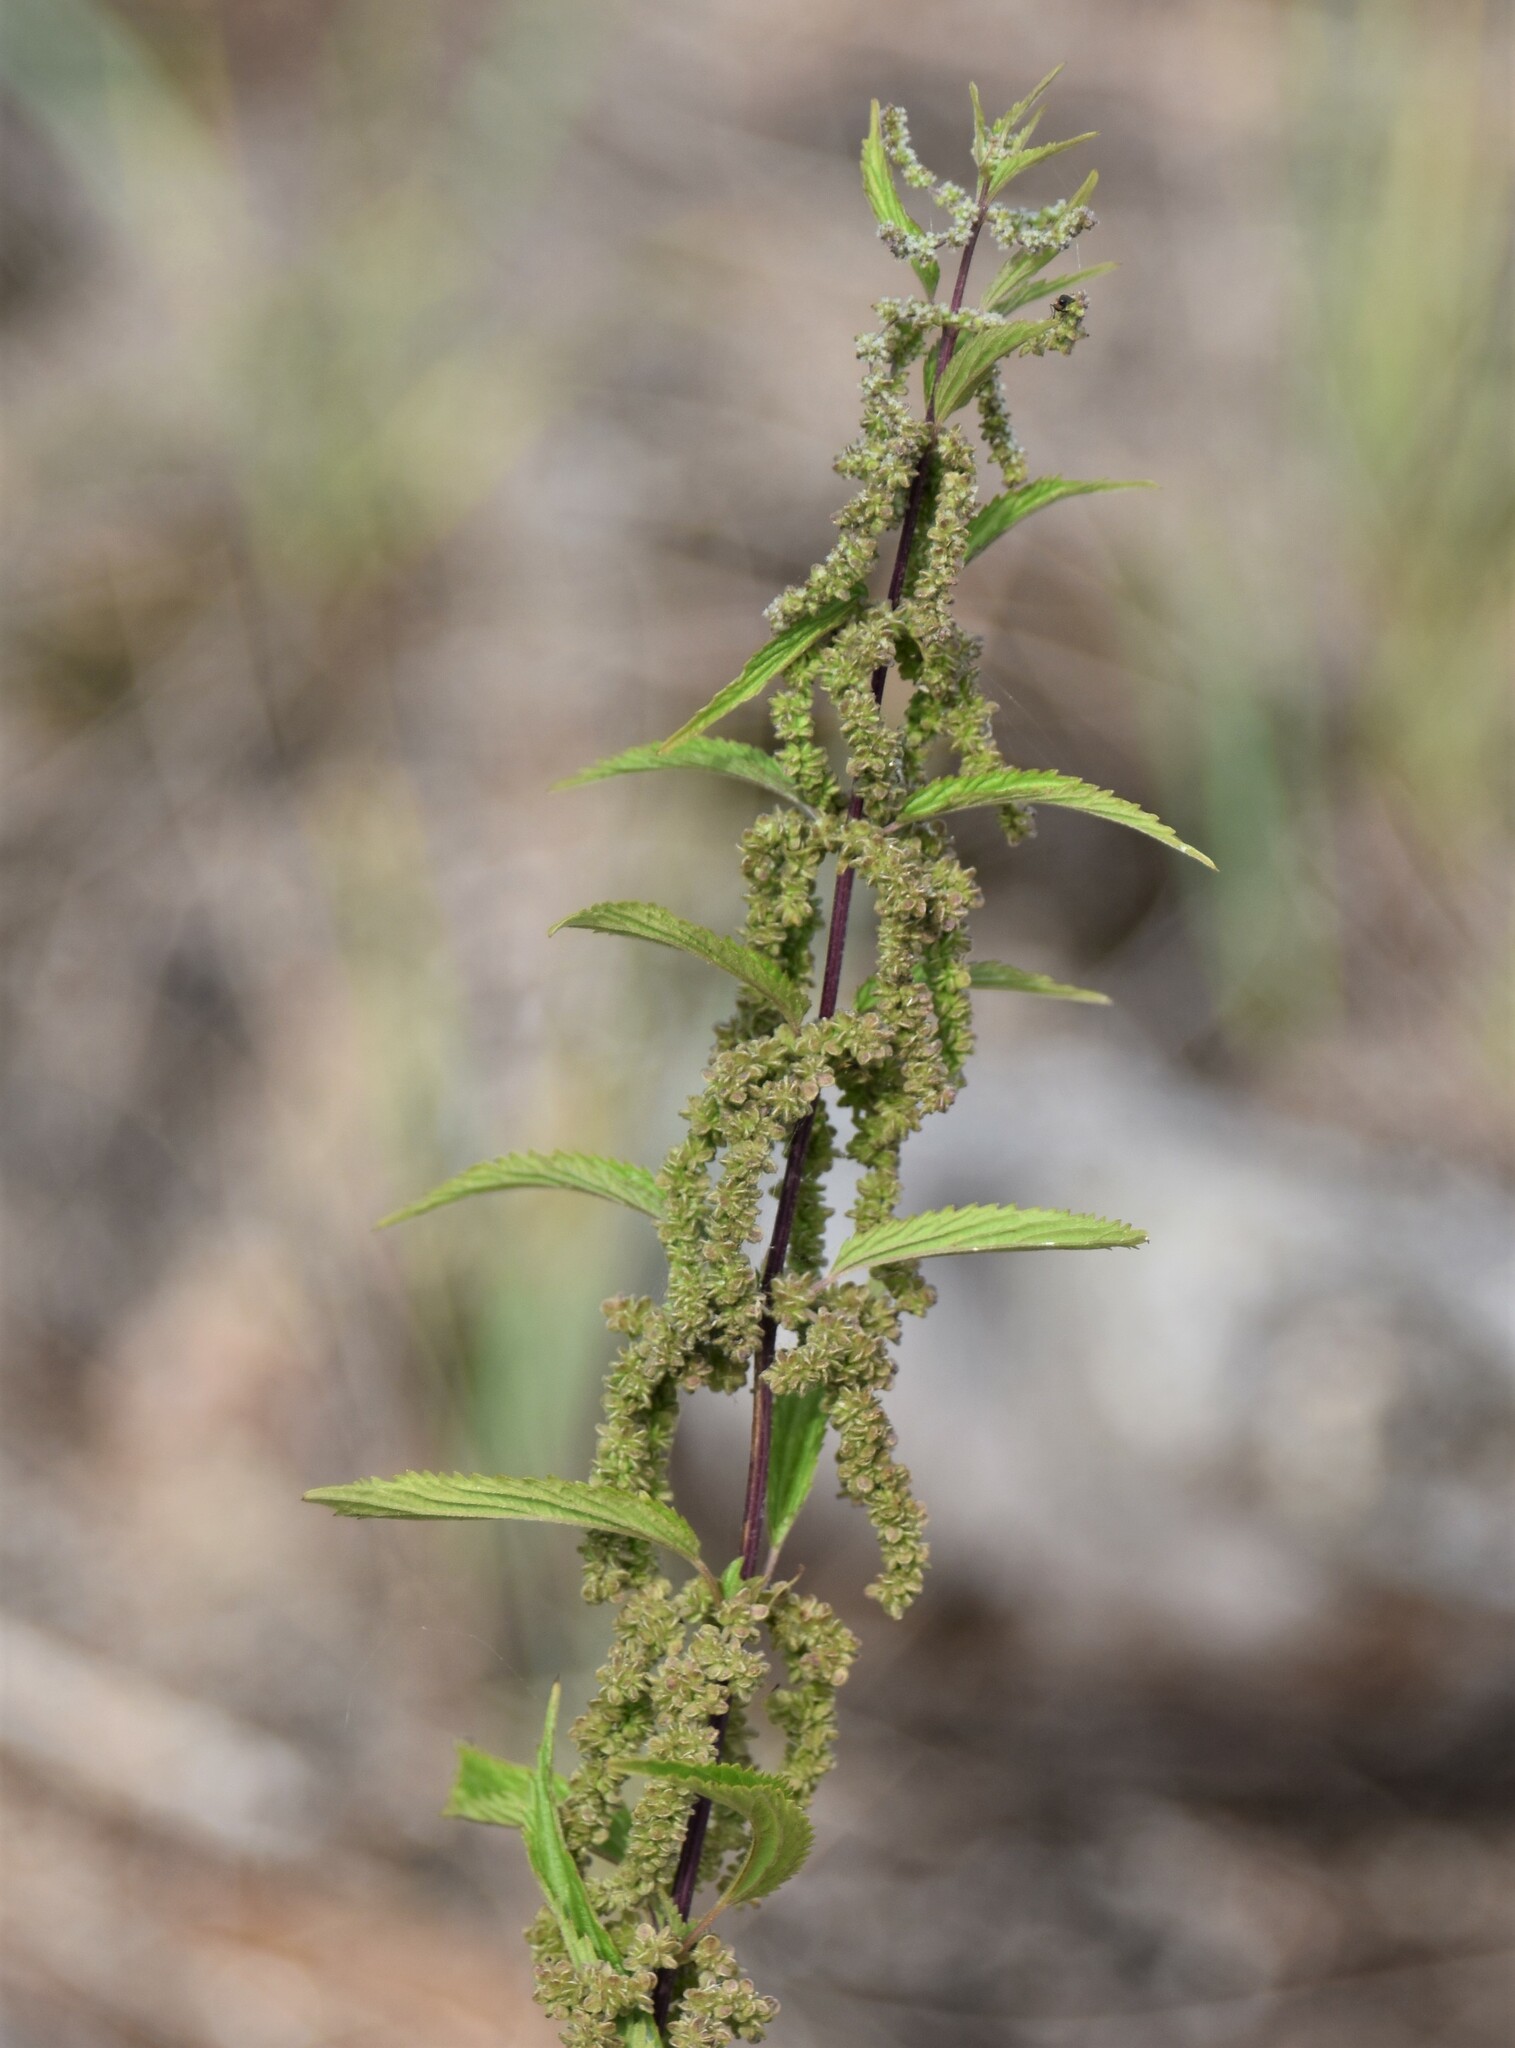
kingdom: Plantae
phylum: Tracheophyta
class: Magnoliopsida
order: Rosales
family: Urticaceae
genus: Urtica
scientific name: Urtica gracilis
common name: Slender stinging nettle
